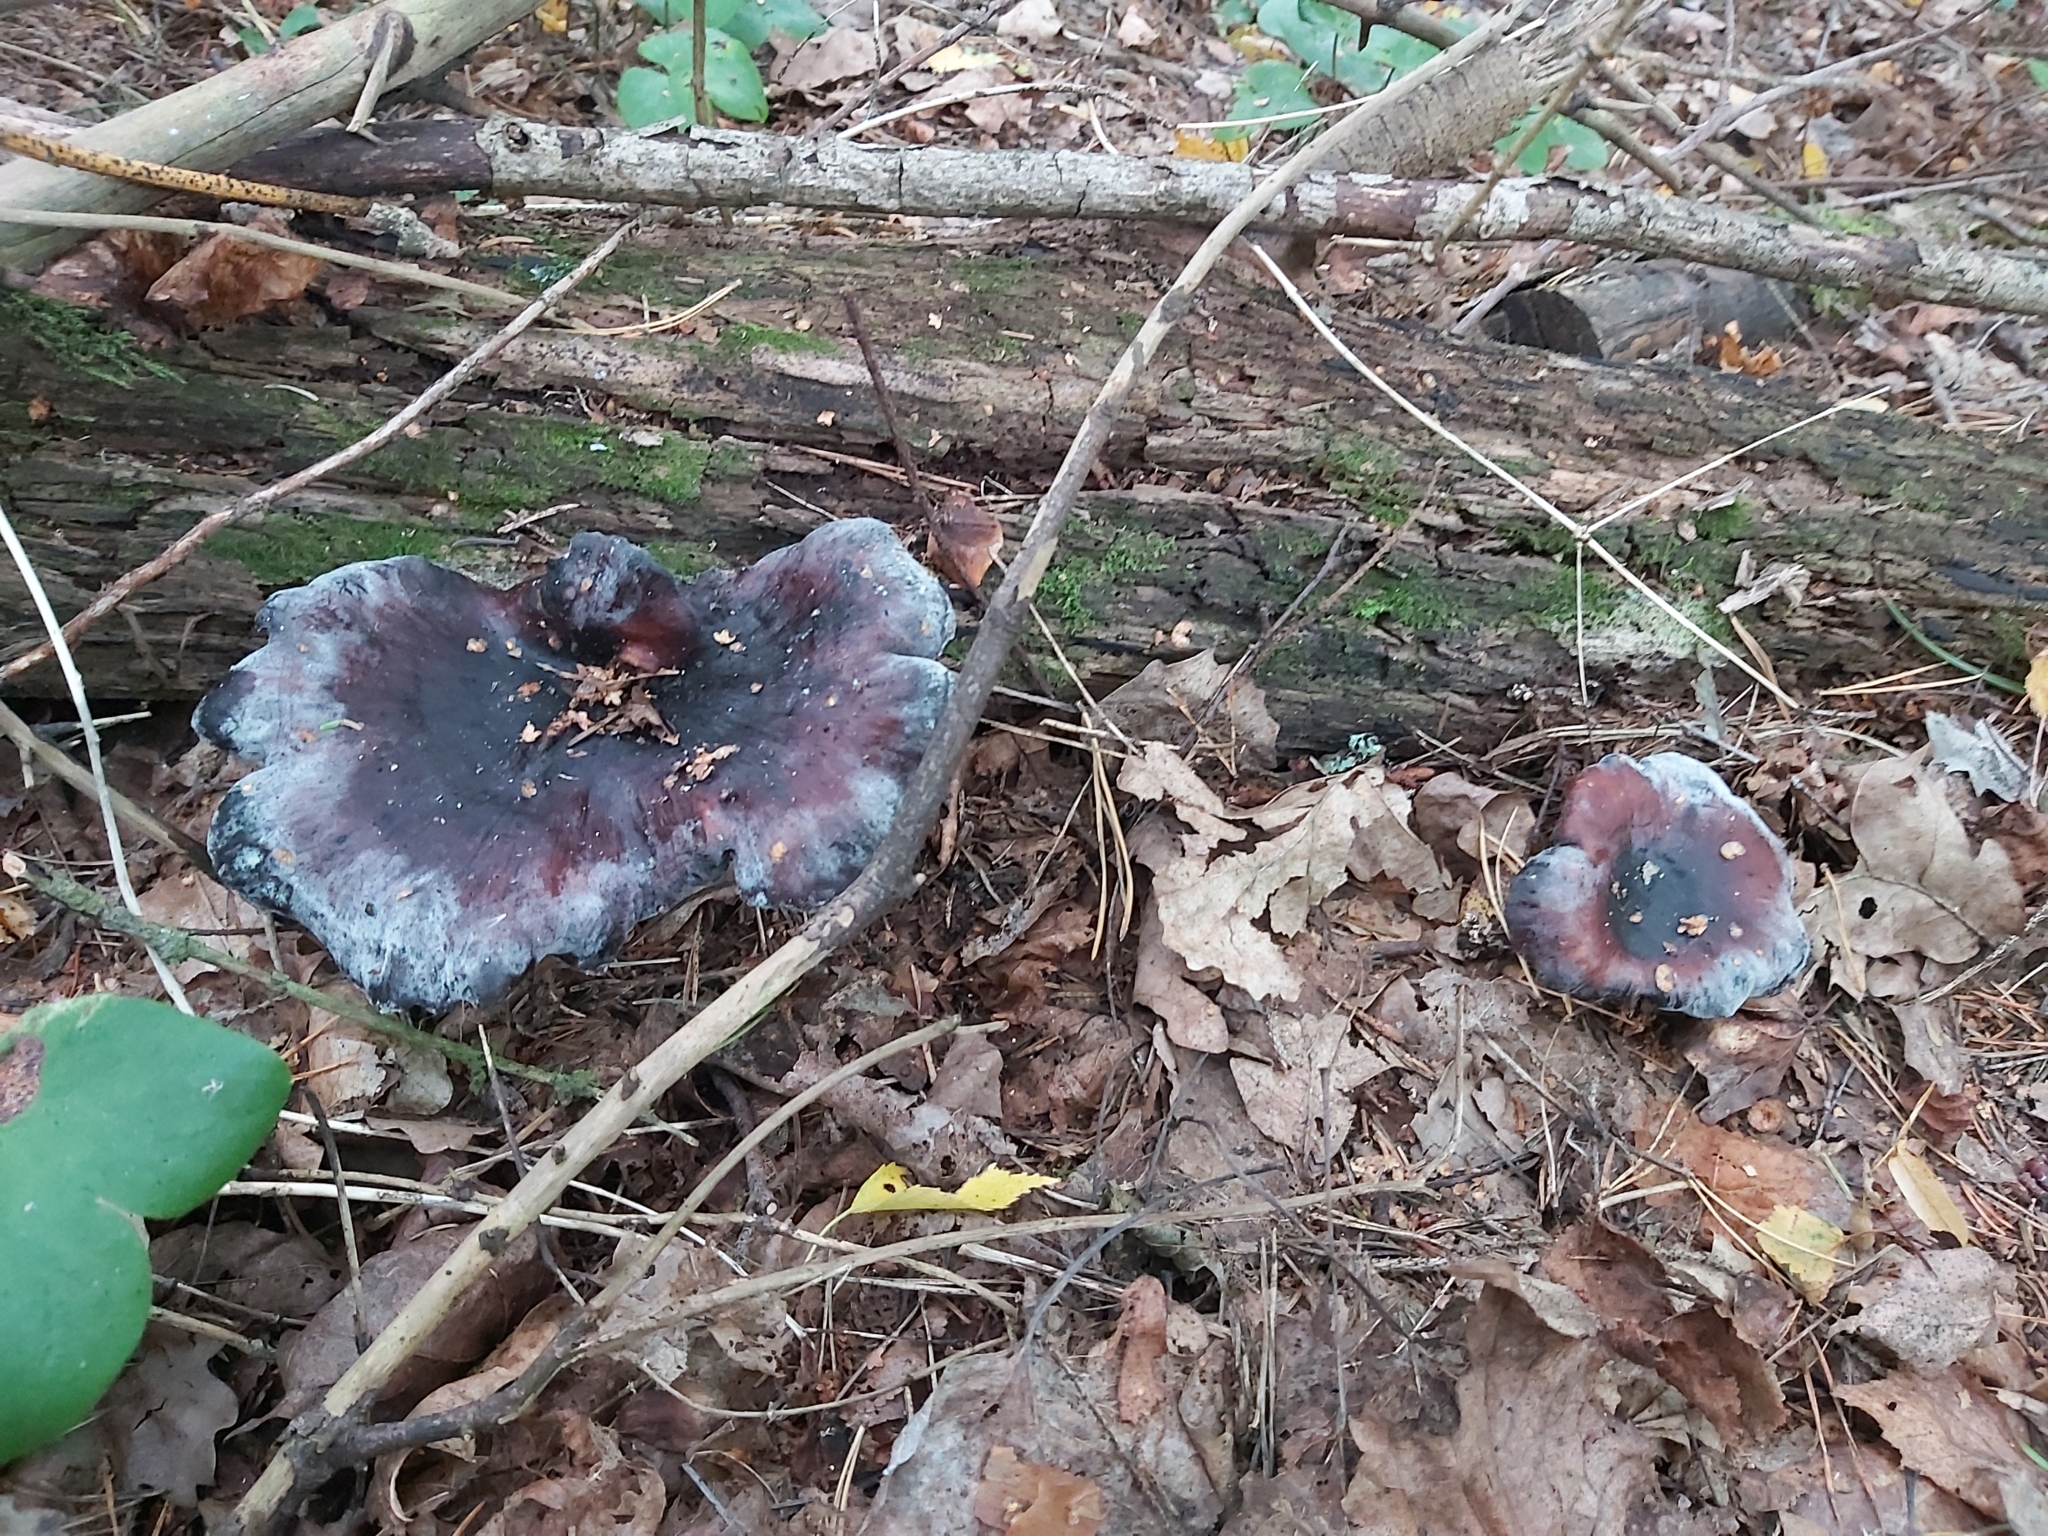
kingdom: Fungi
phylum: Basidiomycota
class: Agaricomycetes
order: Polyporales
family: Polyporaceae
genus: Picipes
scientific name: Picipes badius
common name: Bay polypore
